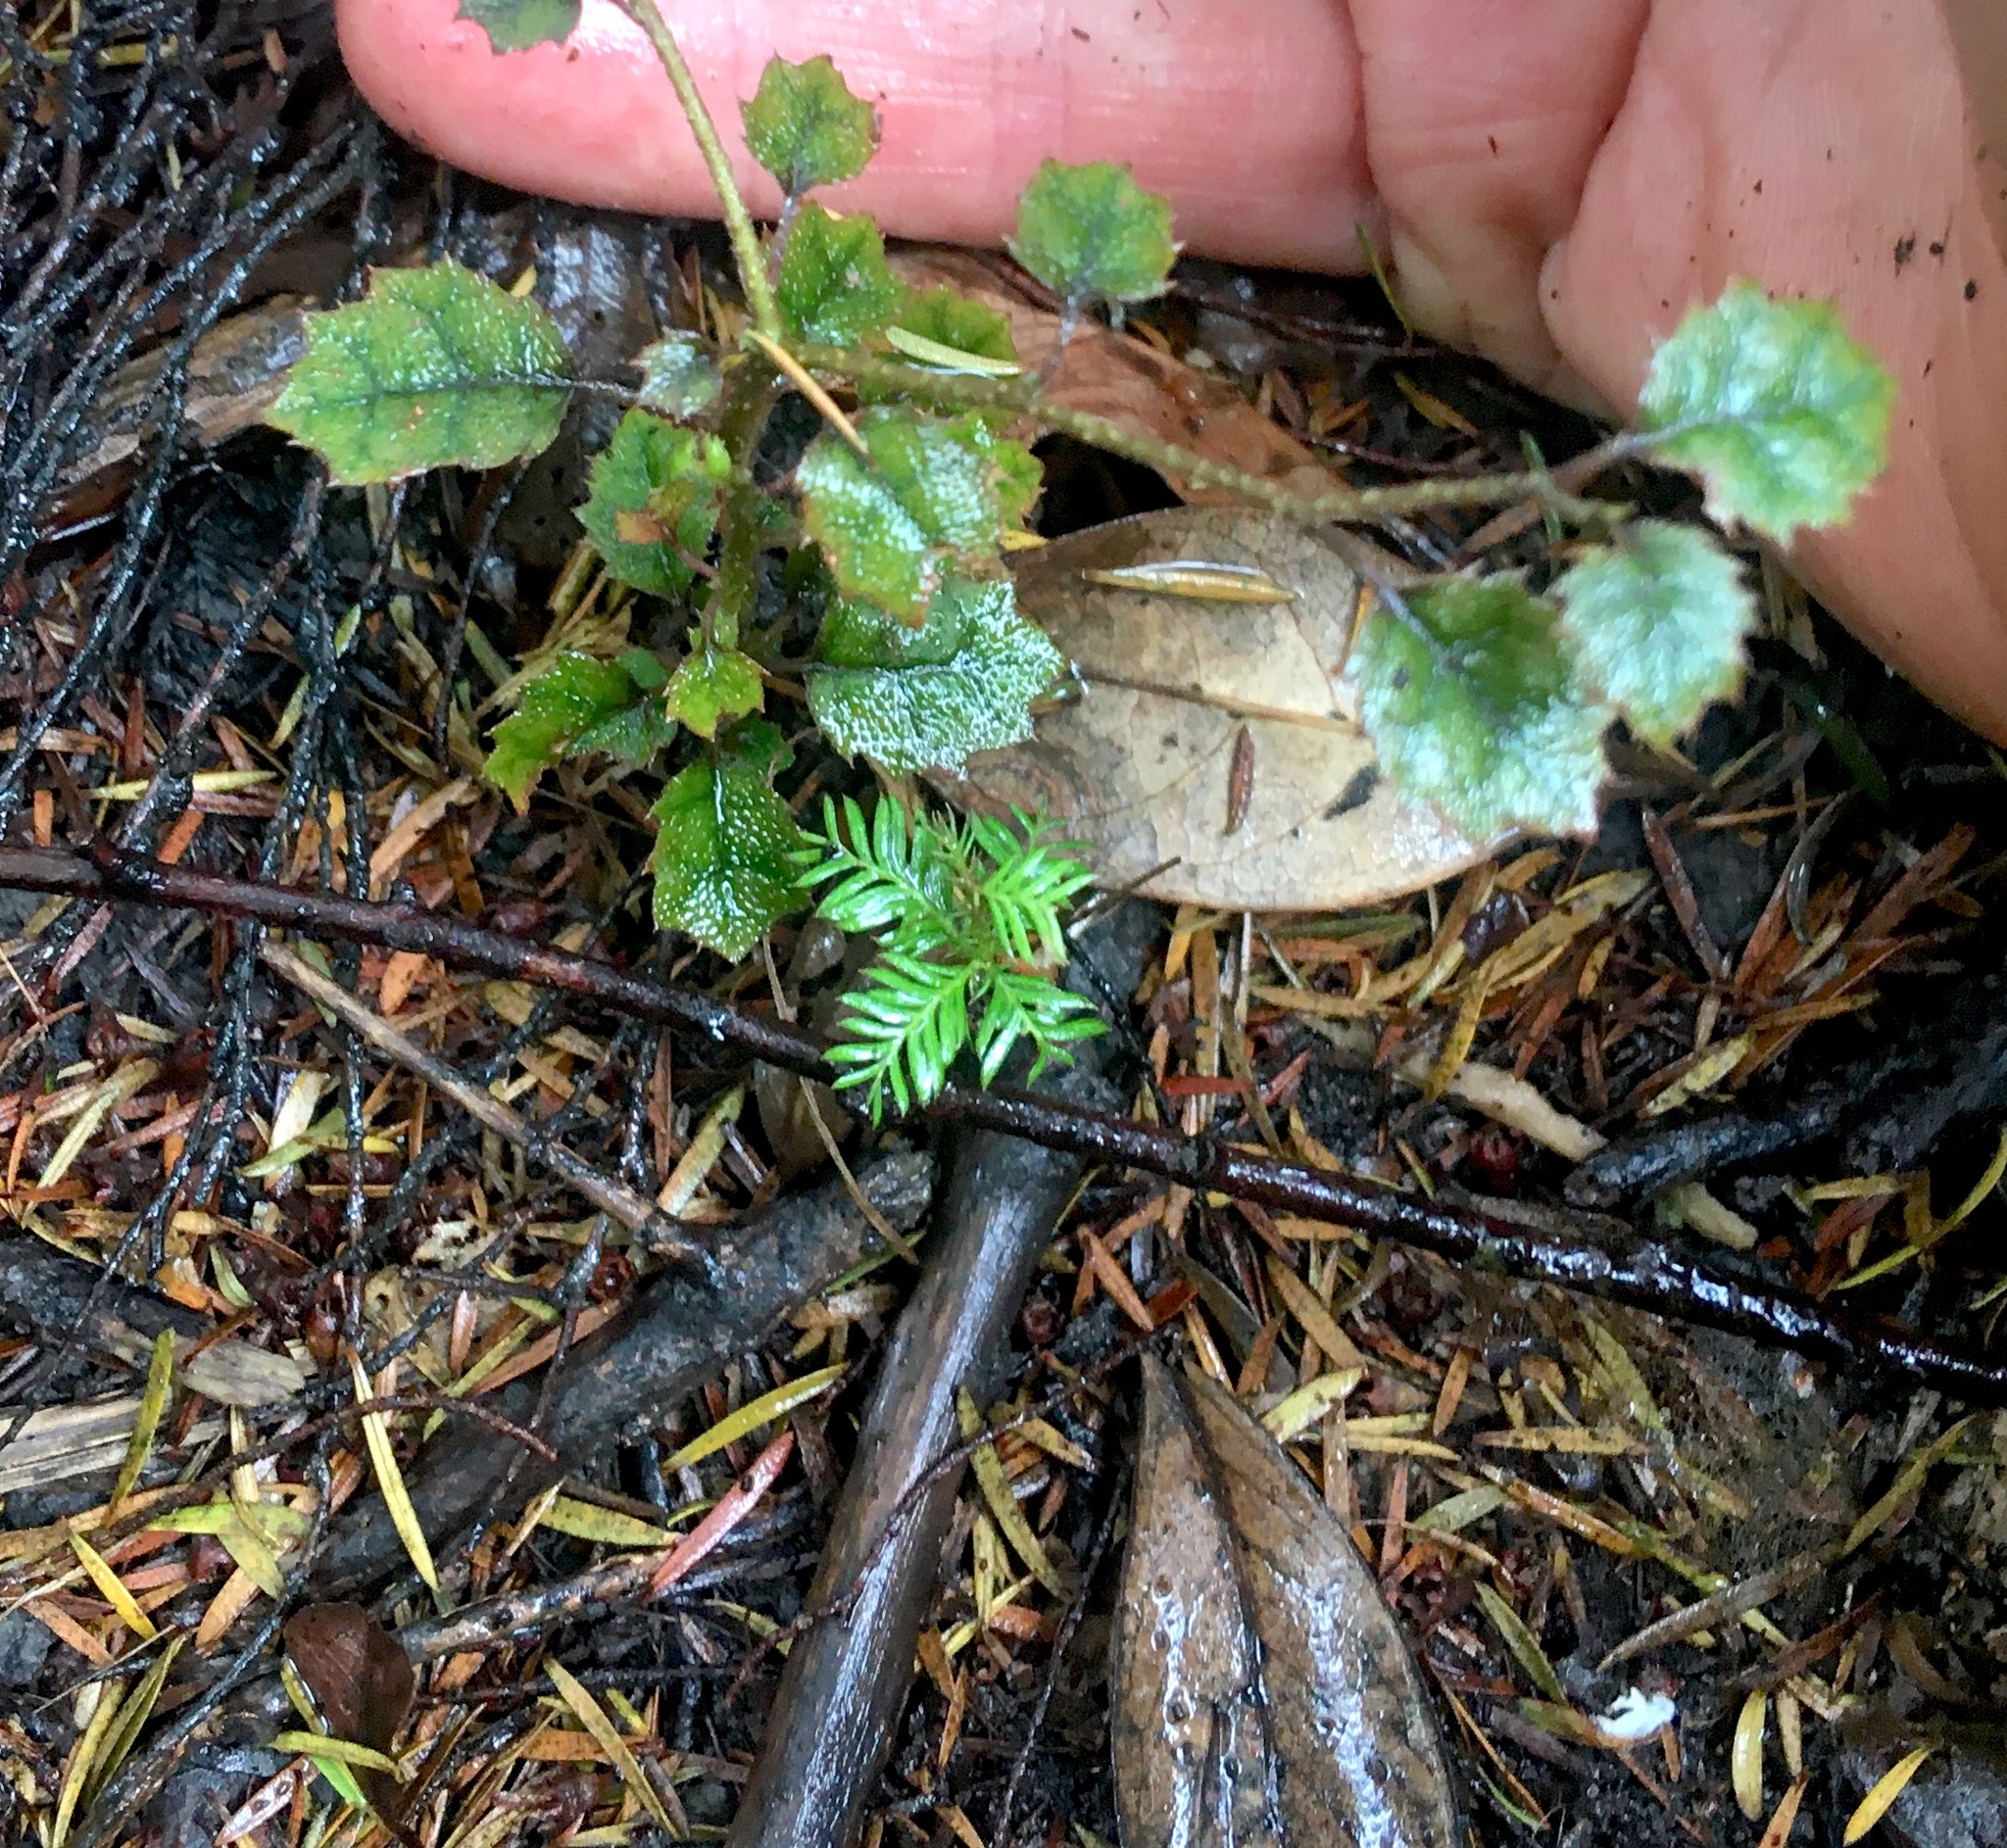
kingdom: Plantae
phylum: Tracheophyta
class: Pinopsida
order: Pinales
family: Podocarpaceae
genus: Dacrycarpus
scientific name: Dacrycarpus dacrydioides
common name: White pine
